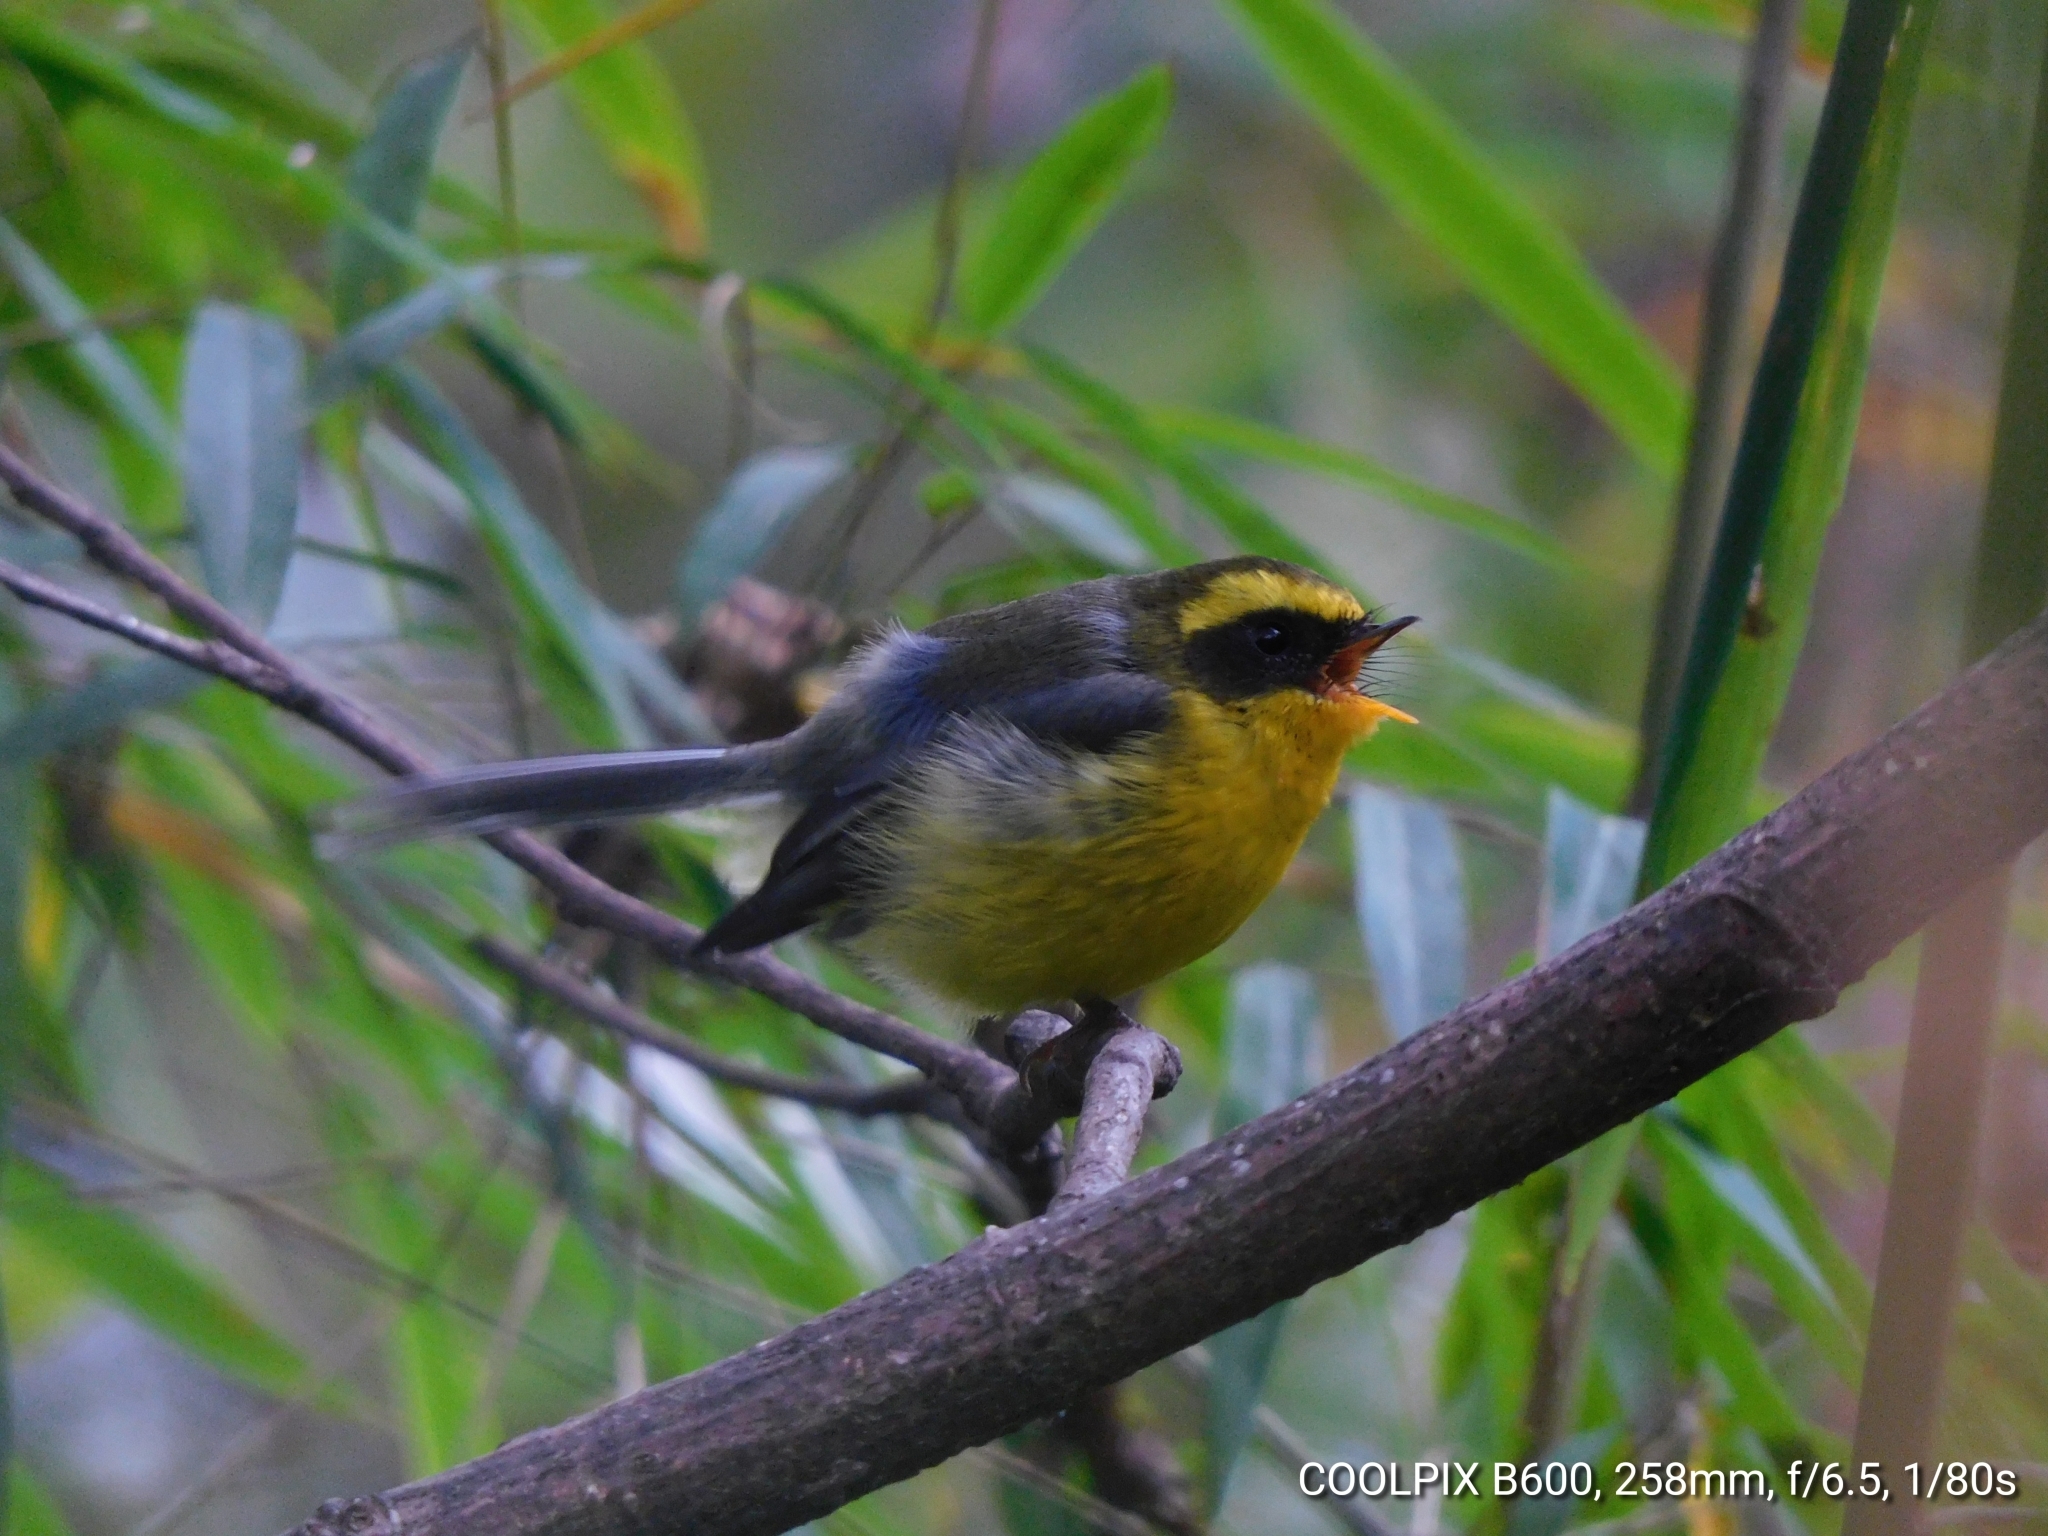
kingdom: Animalia
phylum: Chordata
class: Aves
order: Passeriformes
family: Stenostiridae
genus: Chelidorhynx
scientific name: Chelidorhynx hypoxantha
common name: Yellow-bellied fantail
